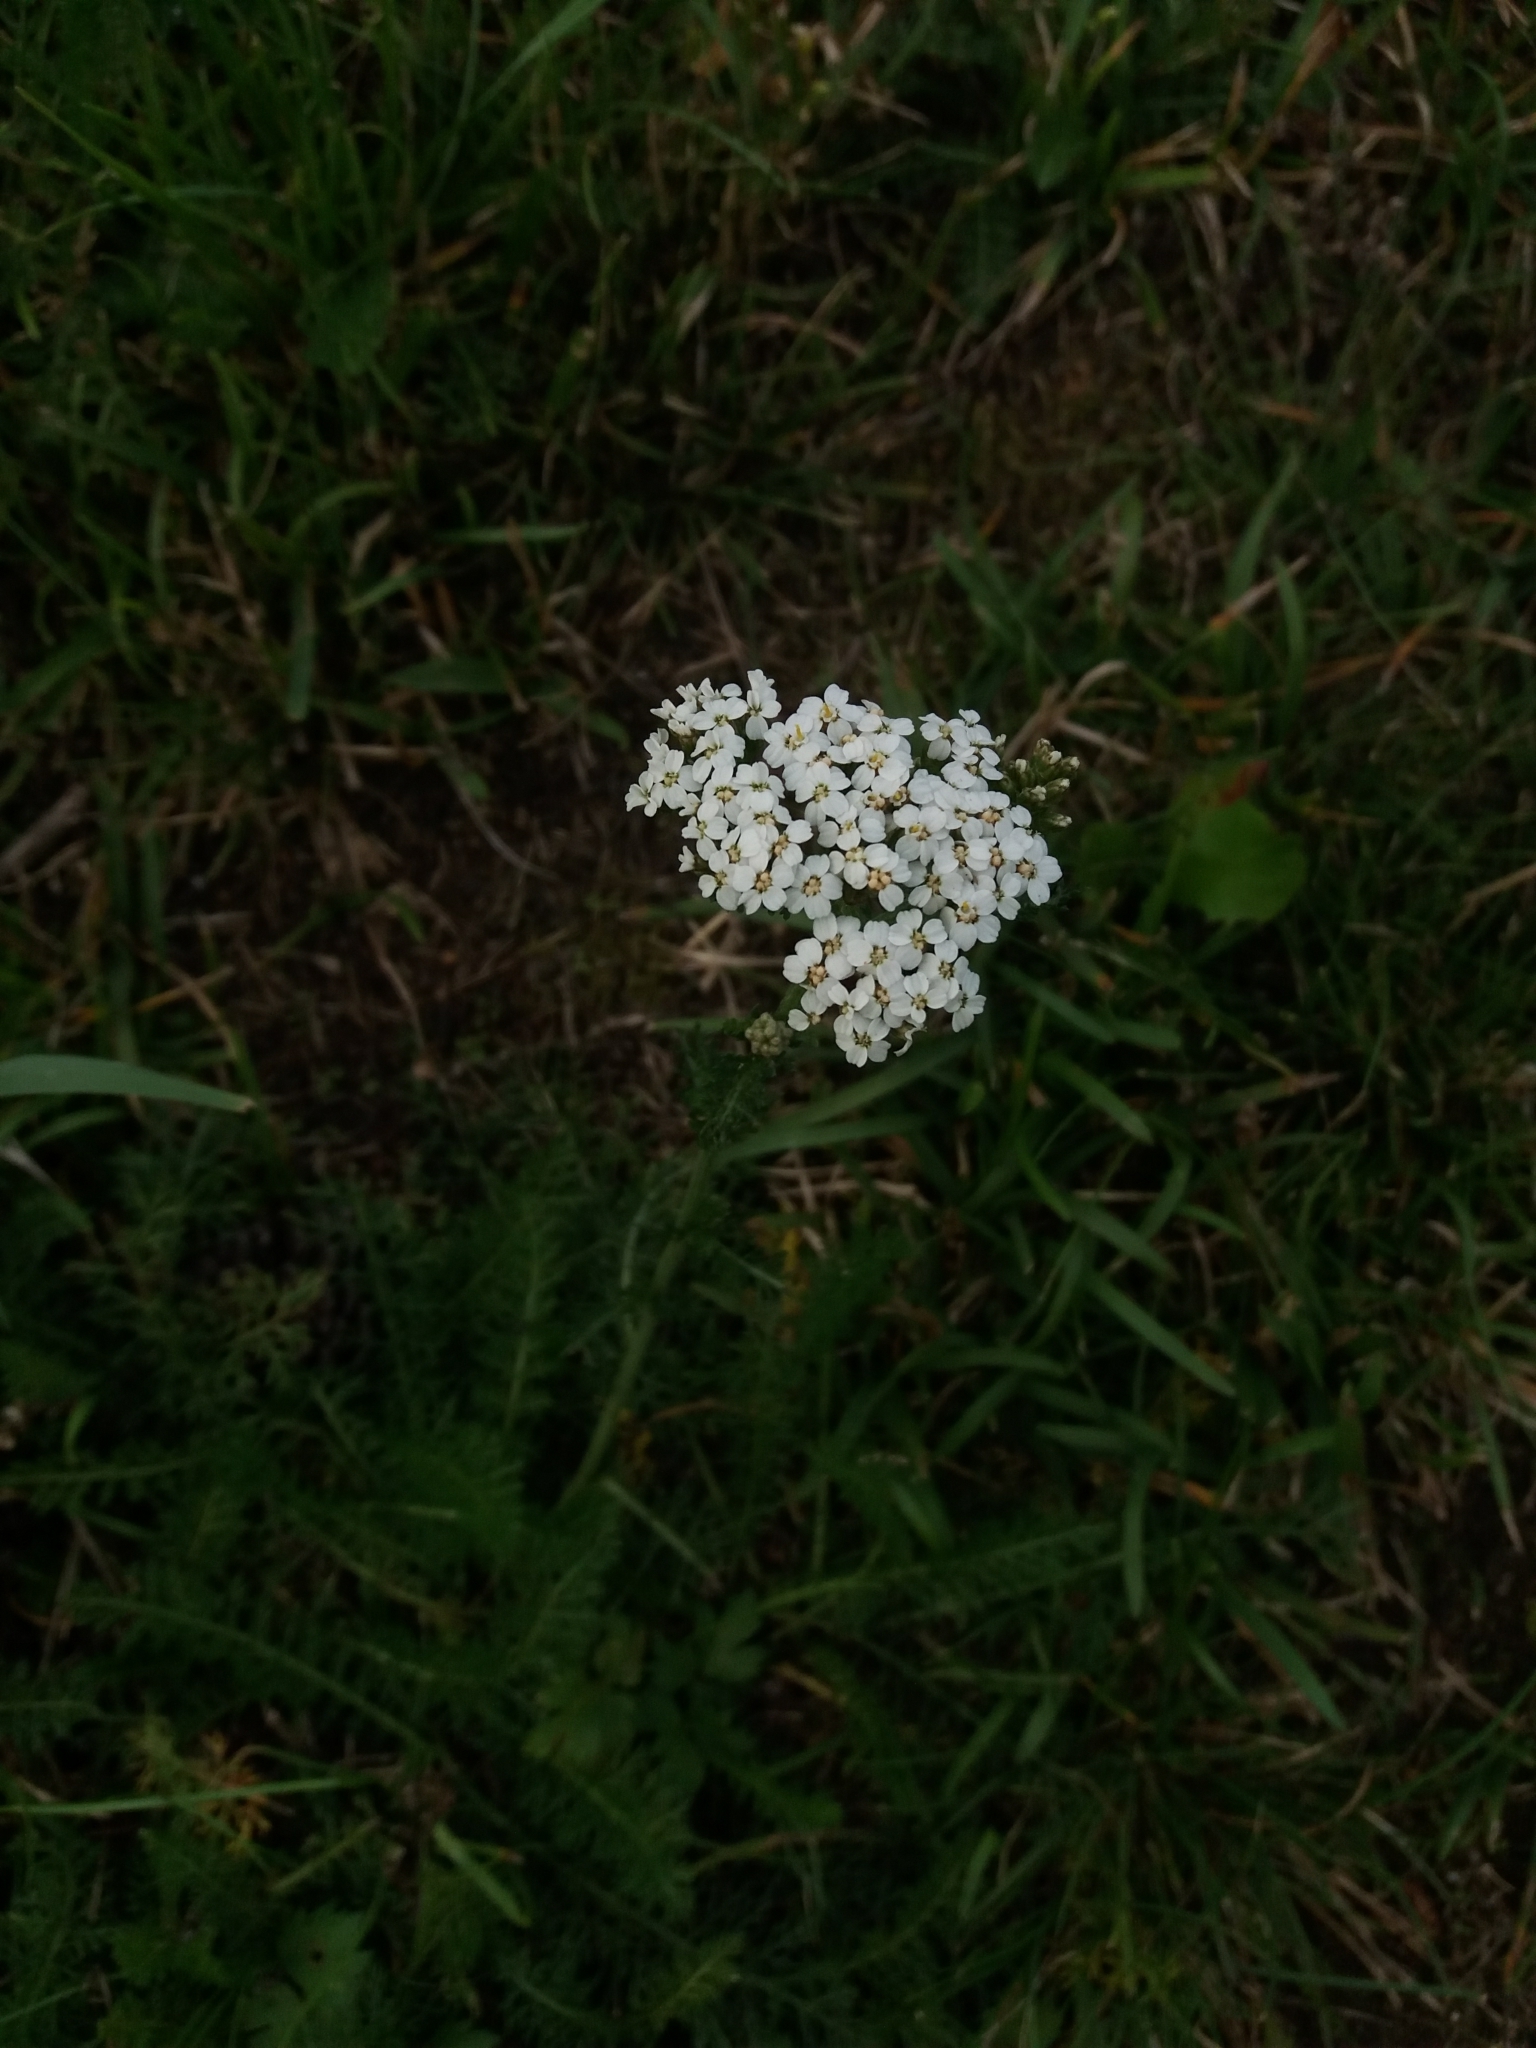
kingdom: Plantae
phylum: Tracheophyta
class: Magnoliopsida
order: Asterales
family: Asteraceae
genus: Achillea
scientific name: Achillea millefolium
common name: Yarrow
